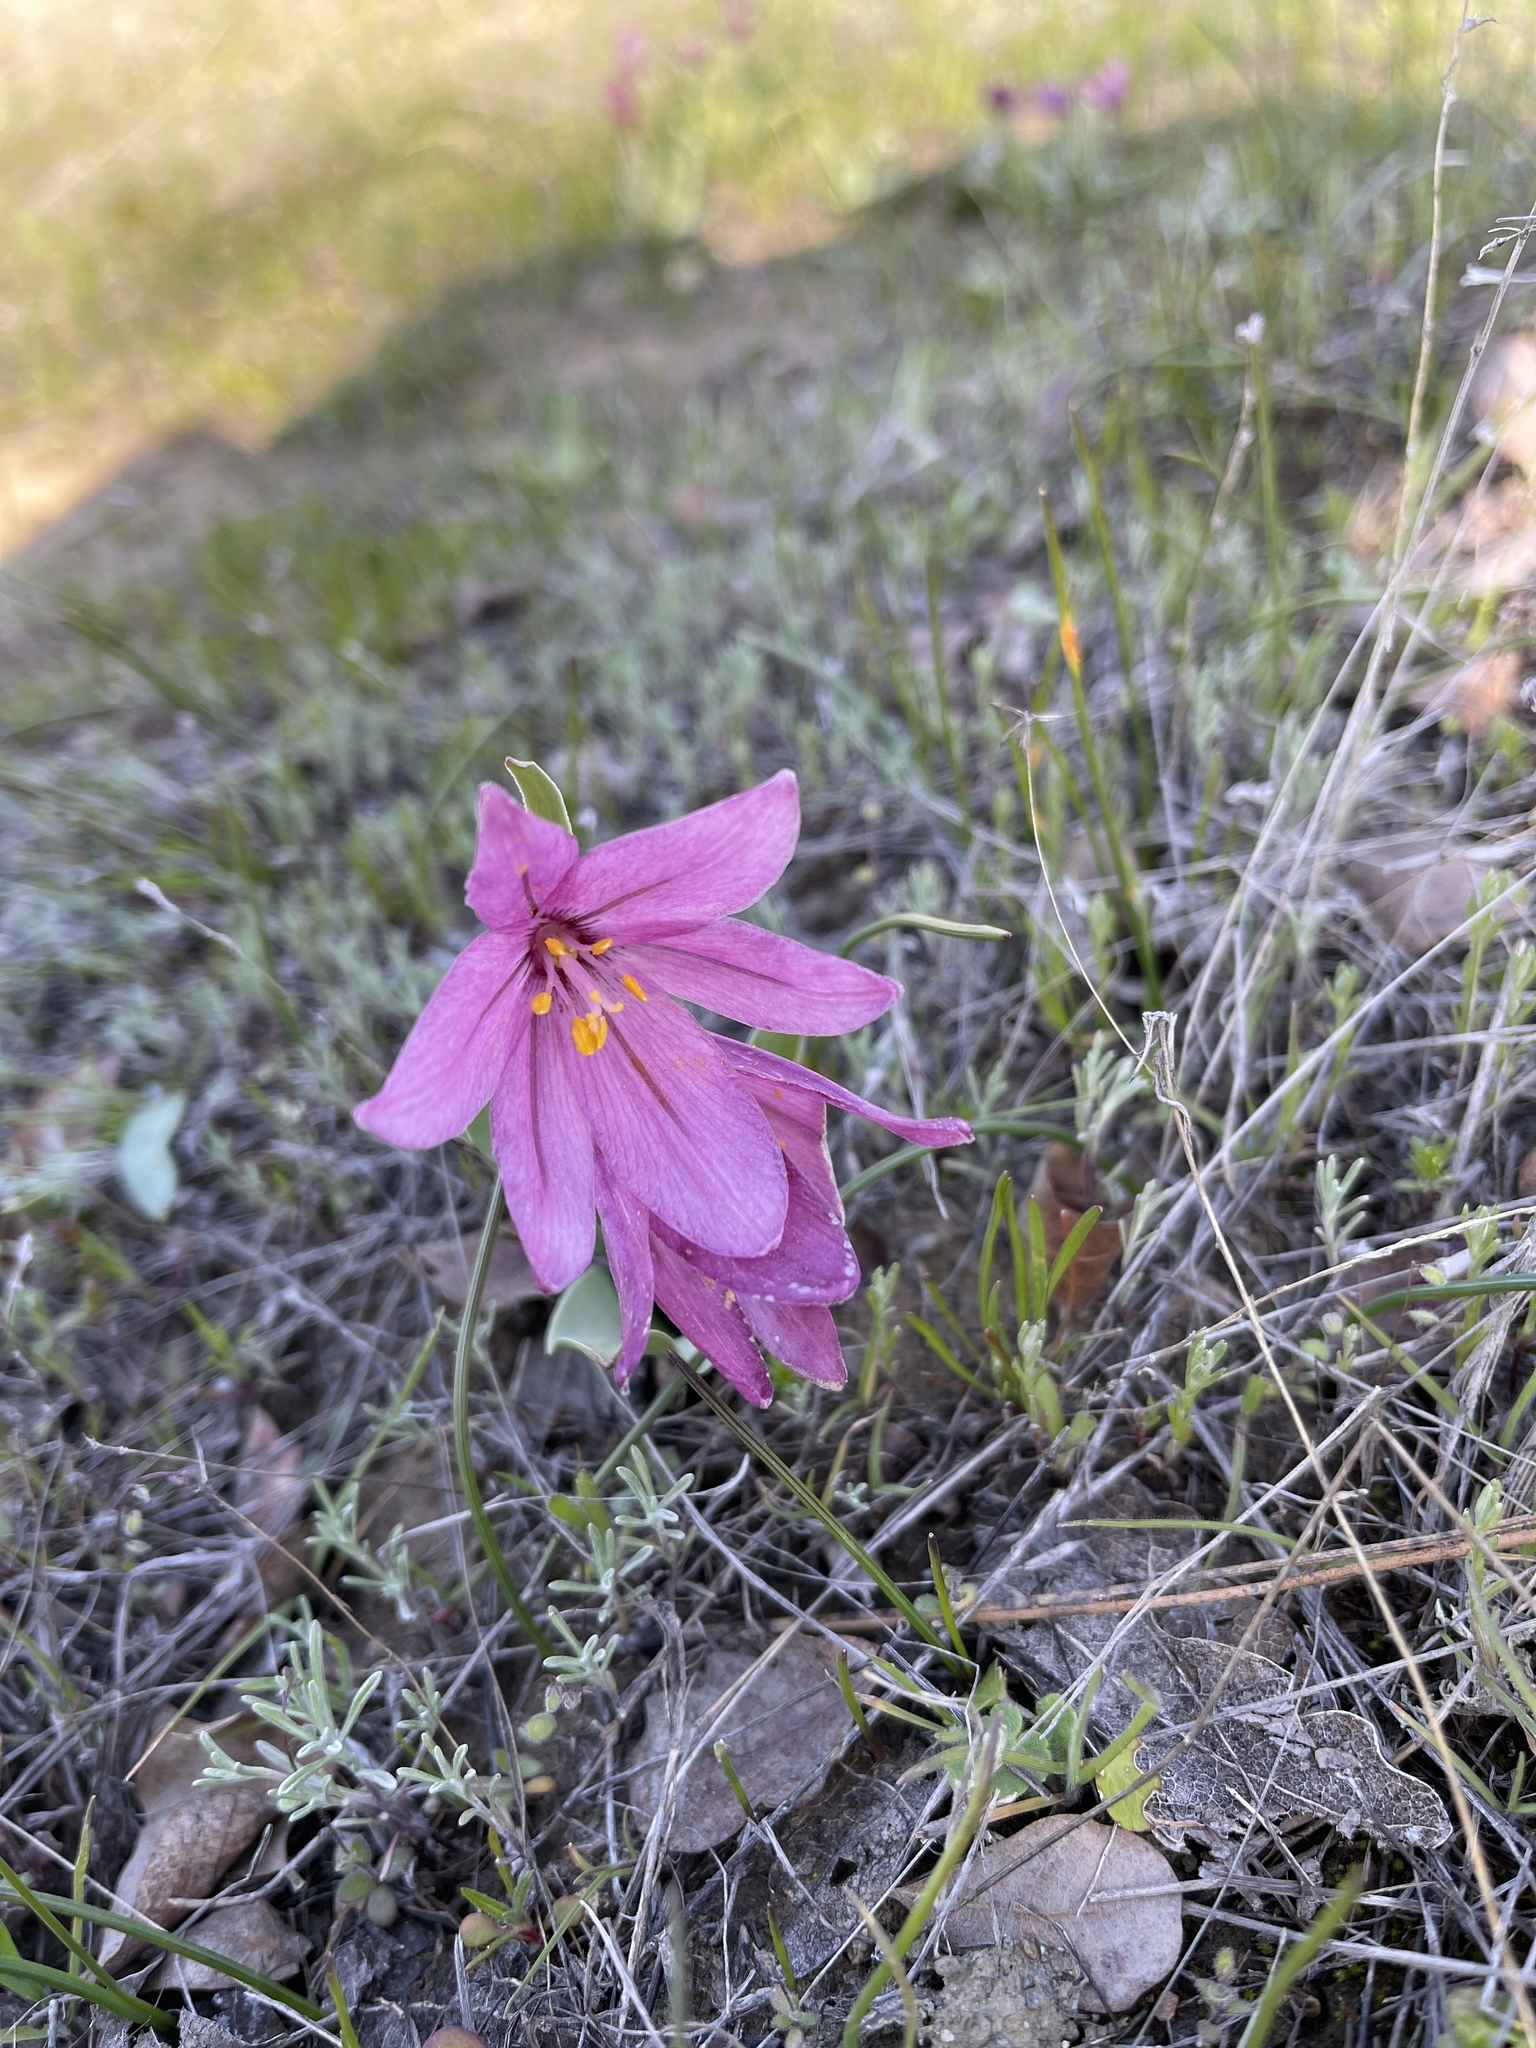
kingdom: Plantae
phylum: Tracheophyta
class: Liliopsida
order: Liliales
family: Liliaceae
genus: Fritillaria
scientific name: Fritillaria pluriflora
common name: Adobe-lily
